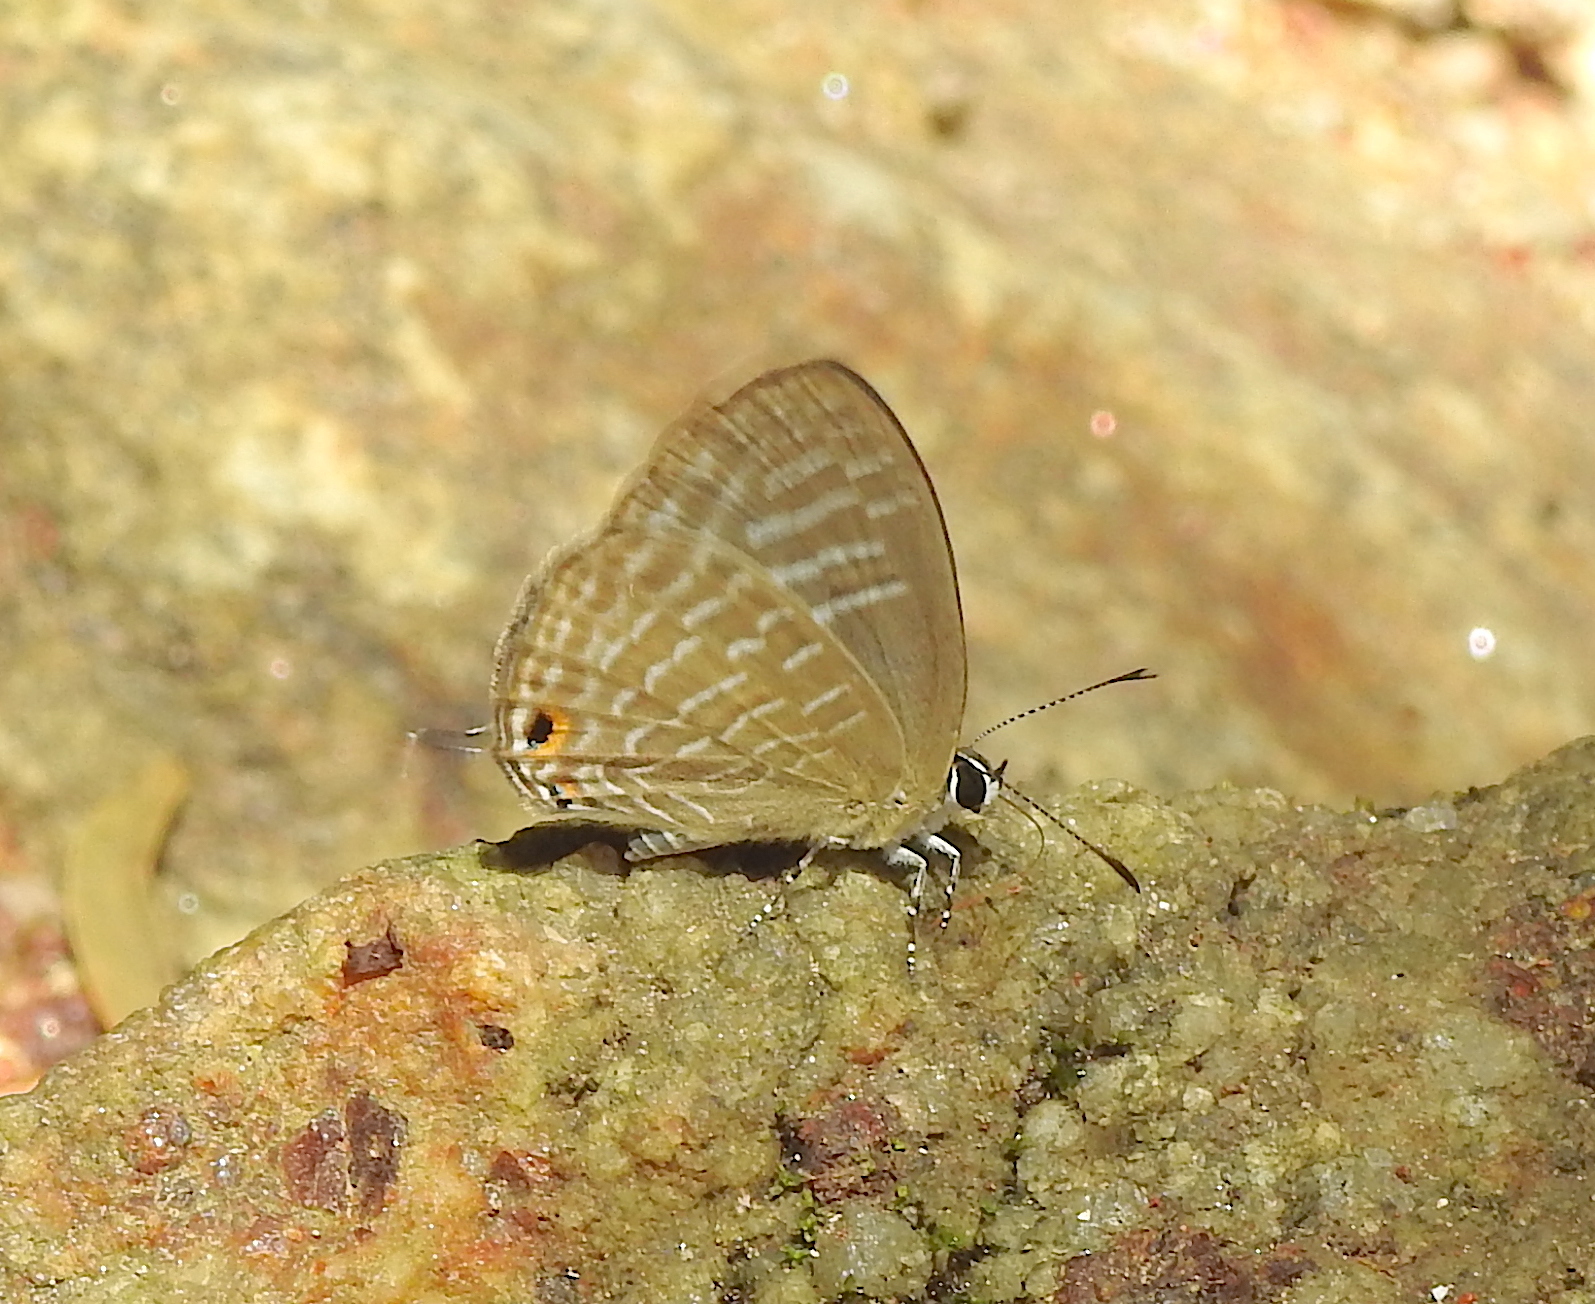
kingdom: Animalia
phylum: Arthropoda
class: Insecta
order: Lepidoptera
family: Lycaenidae
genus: Jamides
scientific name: Jamides alecto
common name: Metallic cerulean
